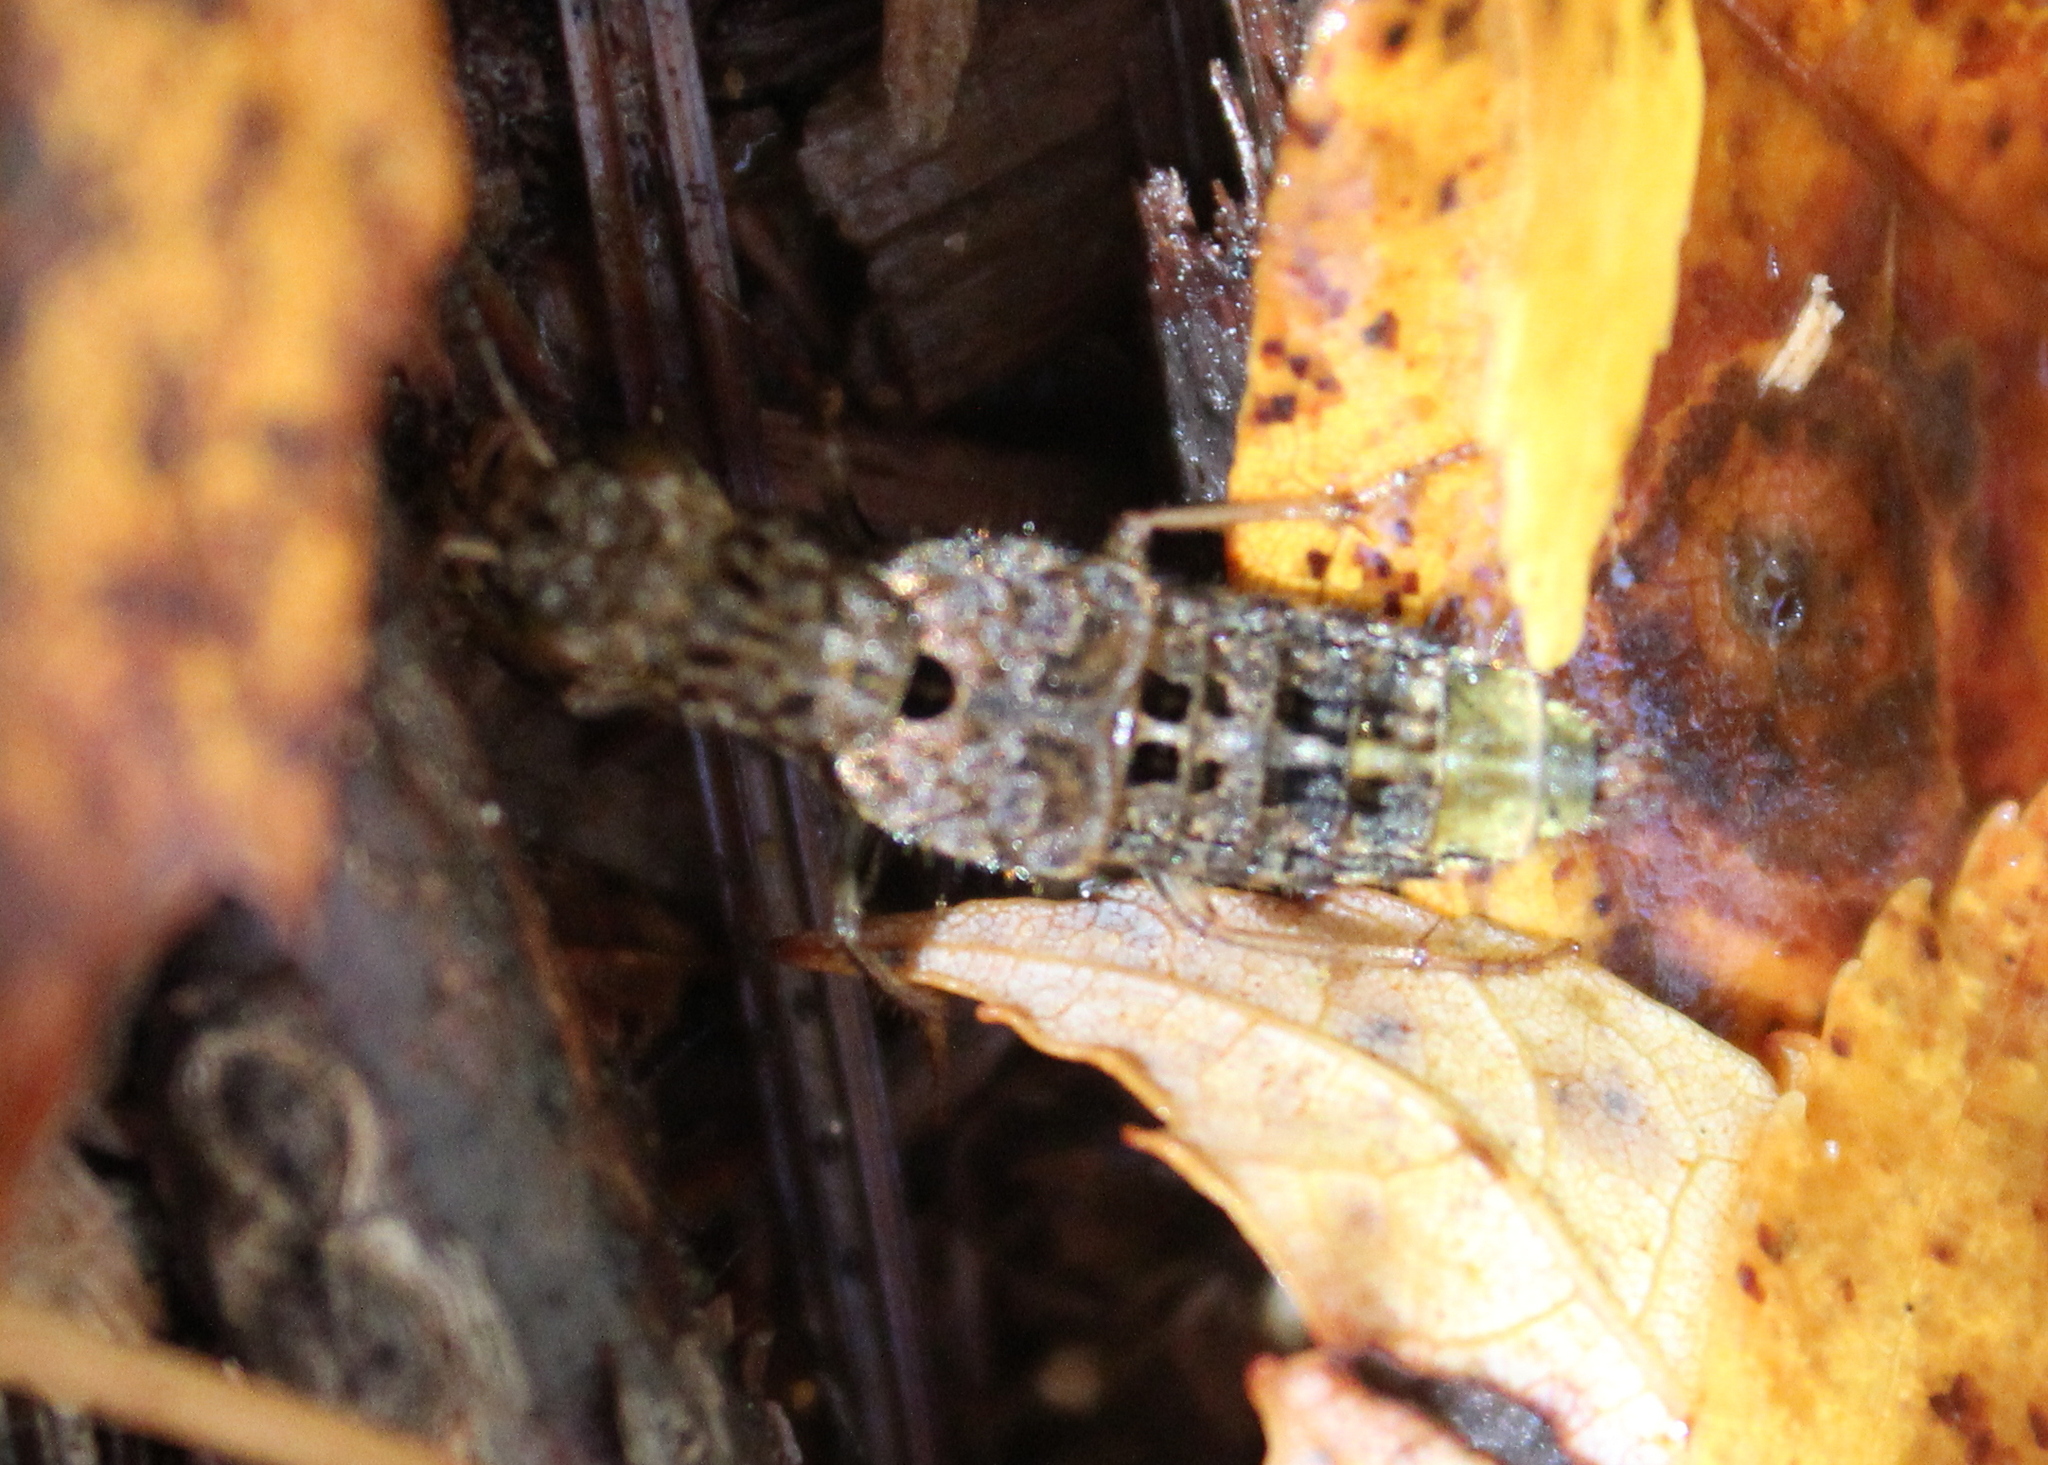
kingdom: Animalia
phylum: Arthropoda
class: Insecta
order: Coleoptera
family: Staphylinidae
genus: Ontholestes
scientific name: Ontholestes cingulatus
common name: Gold-and-brown rove beetle
